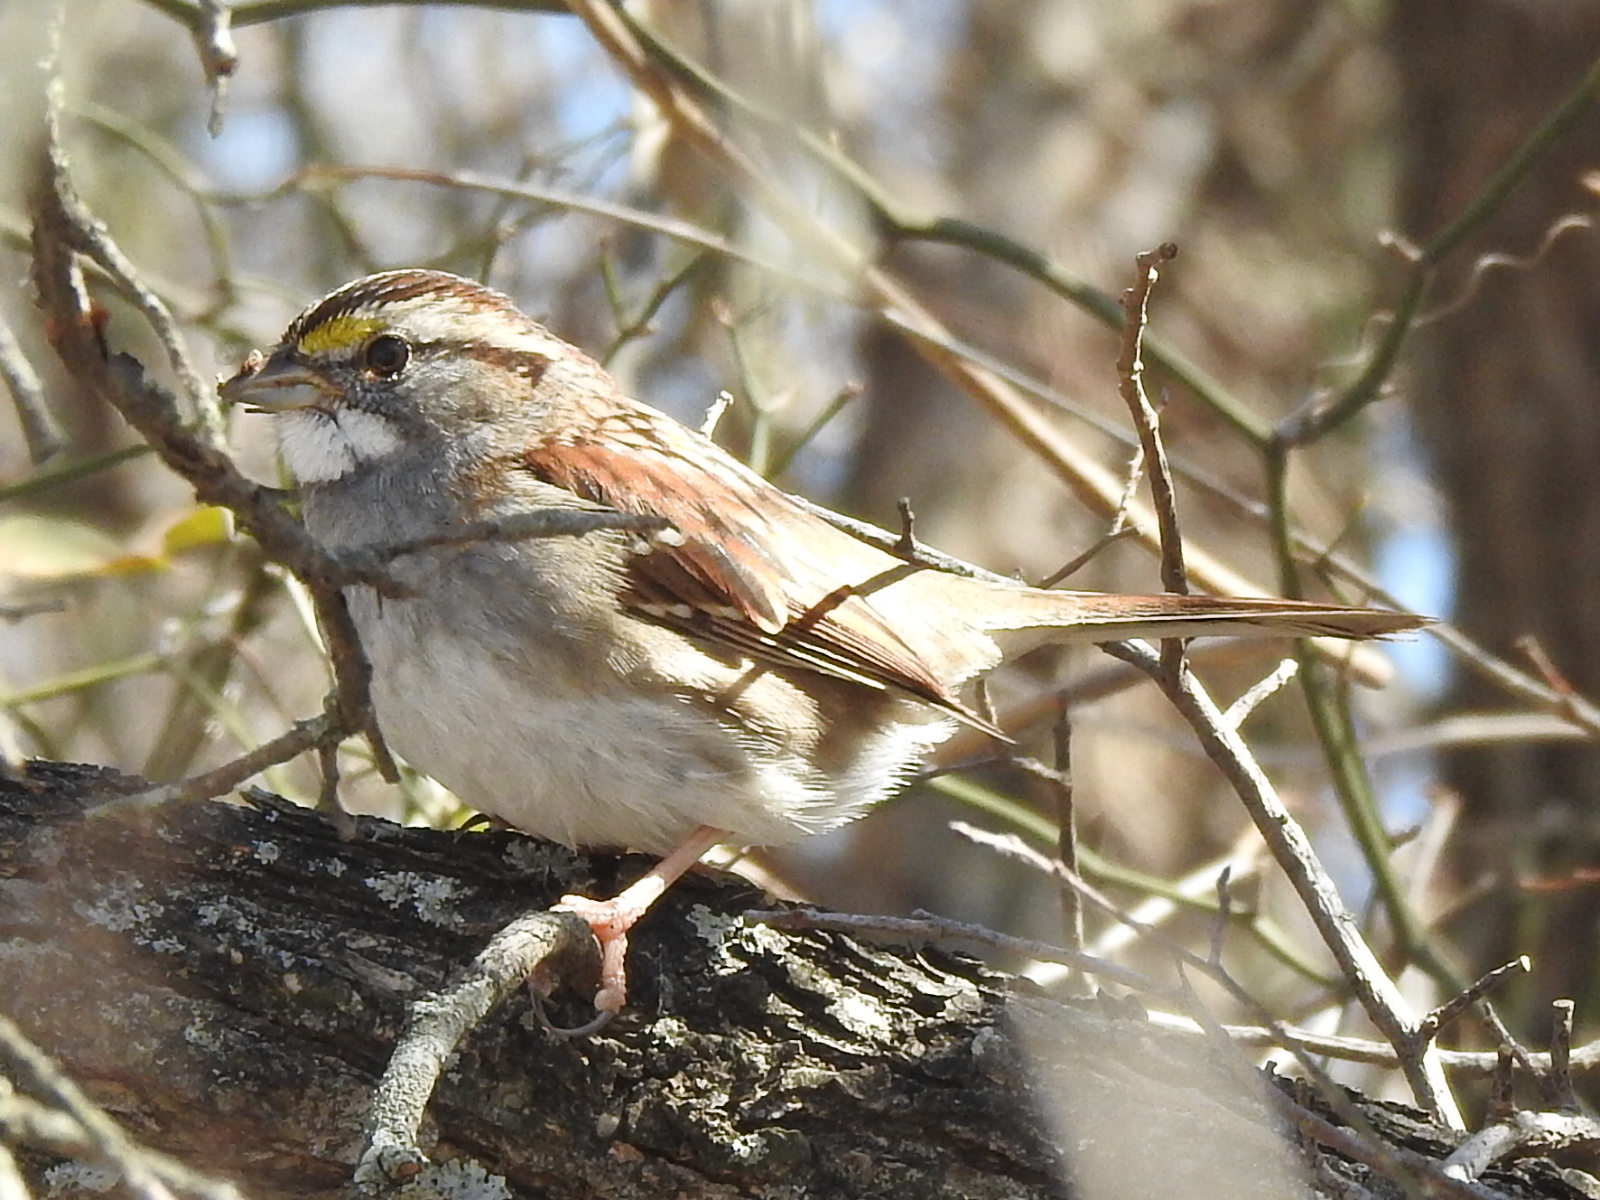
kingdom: Animalia
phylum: Chordata
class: Aves
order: Passeriformes
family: Passerellidae
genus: Zonotrichia
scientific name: Zonotrichia albicollis
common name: White-throated sparrow
